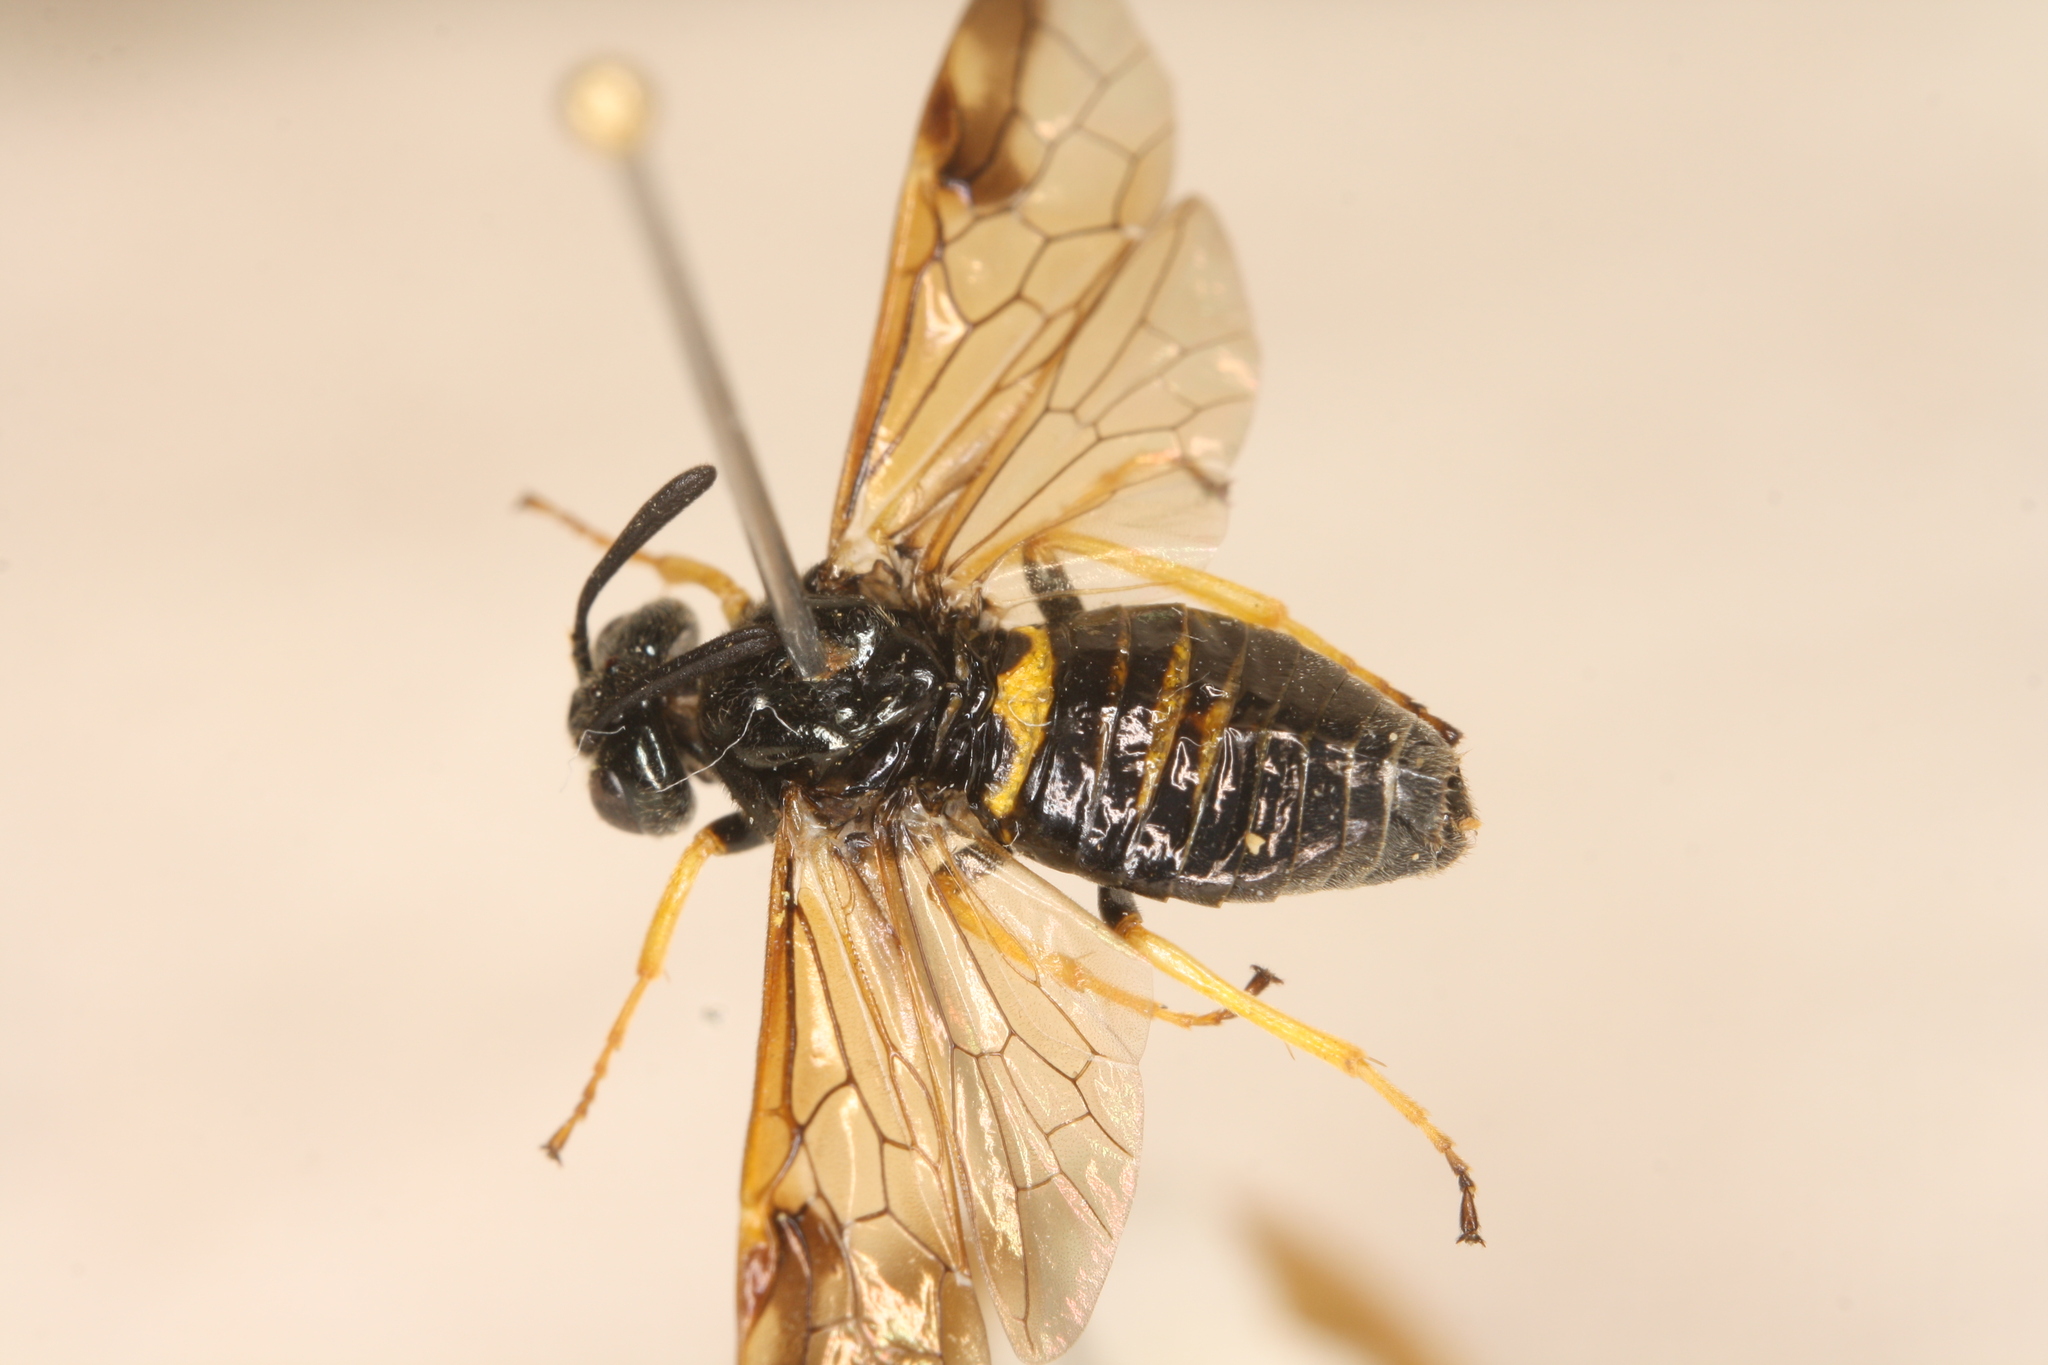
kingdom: Animalia
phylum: Arthropoda
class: Insecta
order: Hymenoptera
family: Argidae
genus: Arge
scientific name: Arge rustica
